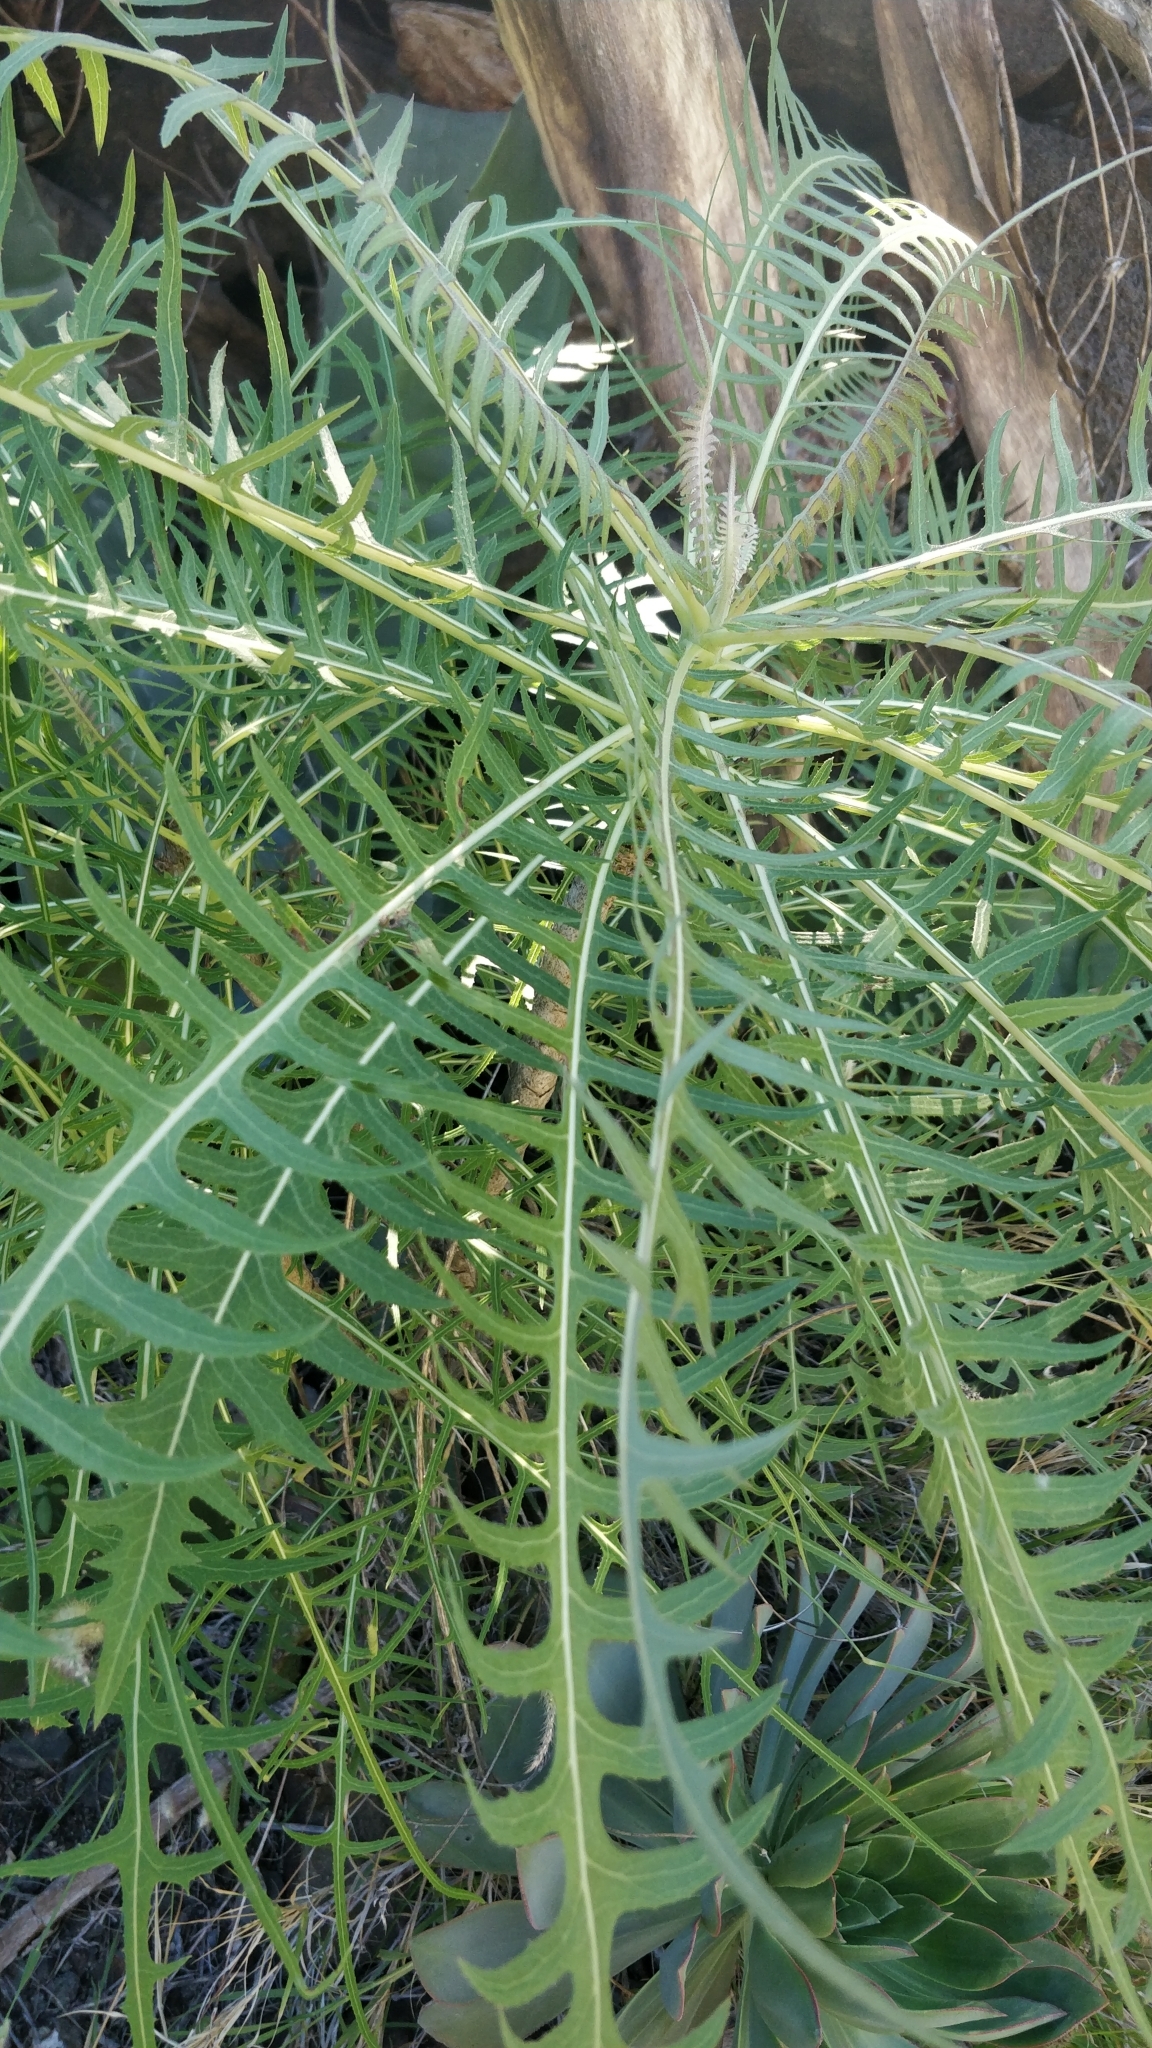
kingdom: Plantae
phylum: Tracheophyta
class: Magnoliopsida
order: Asterales
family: Asteraceae
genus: Sonchus
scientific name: Sonchus canariensis
